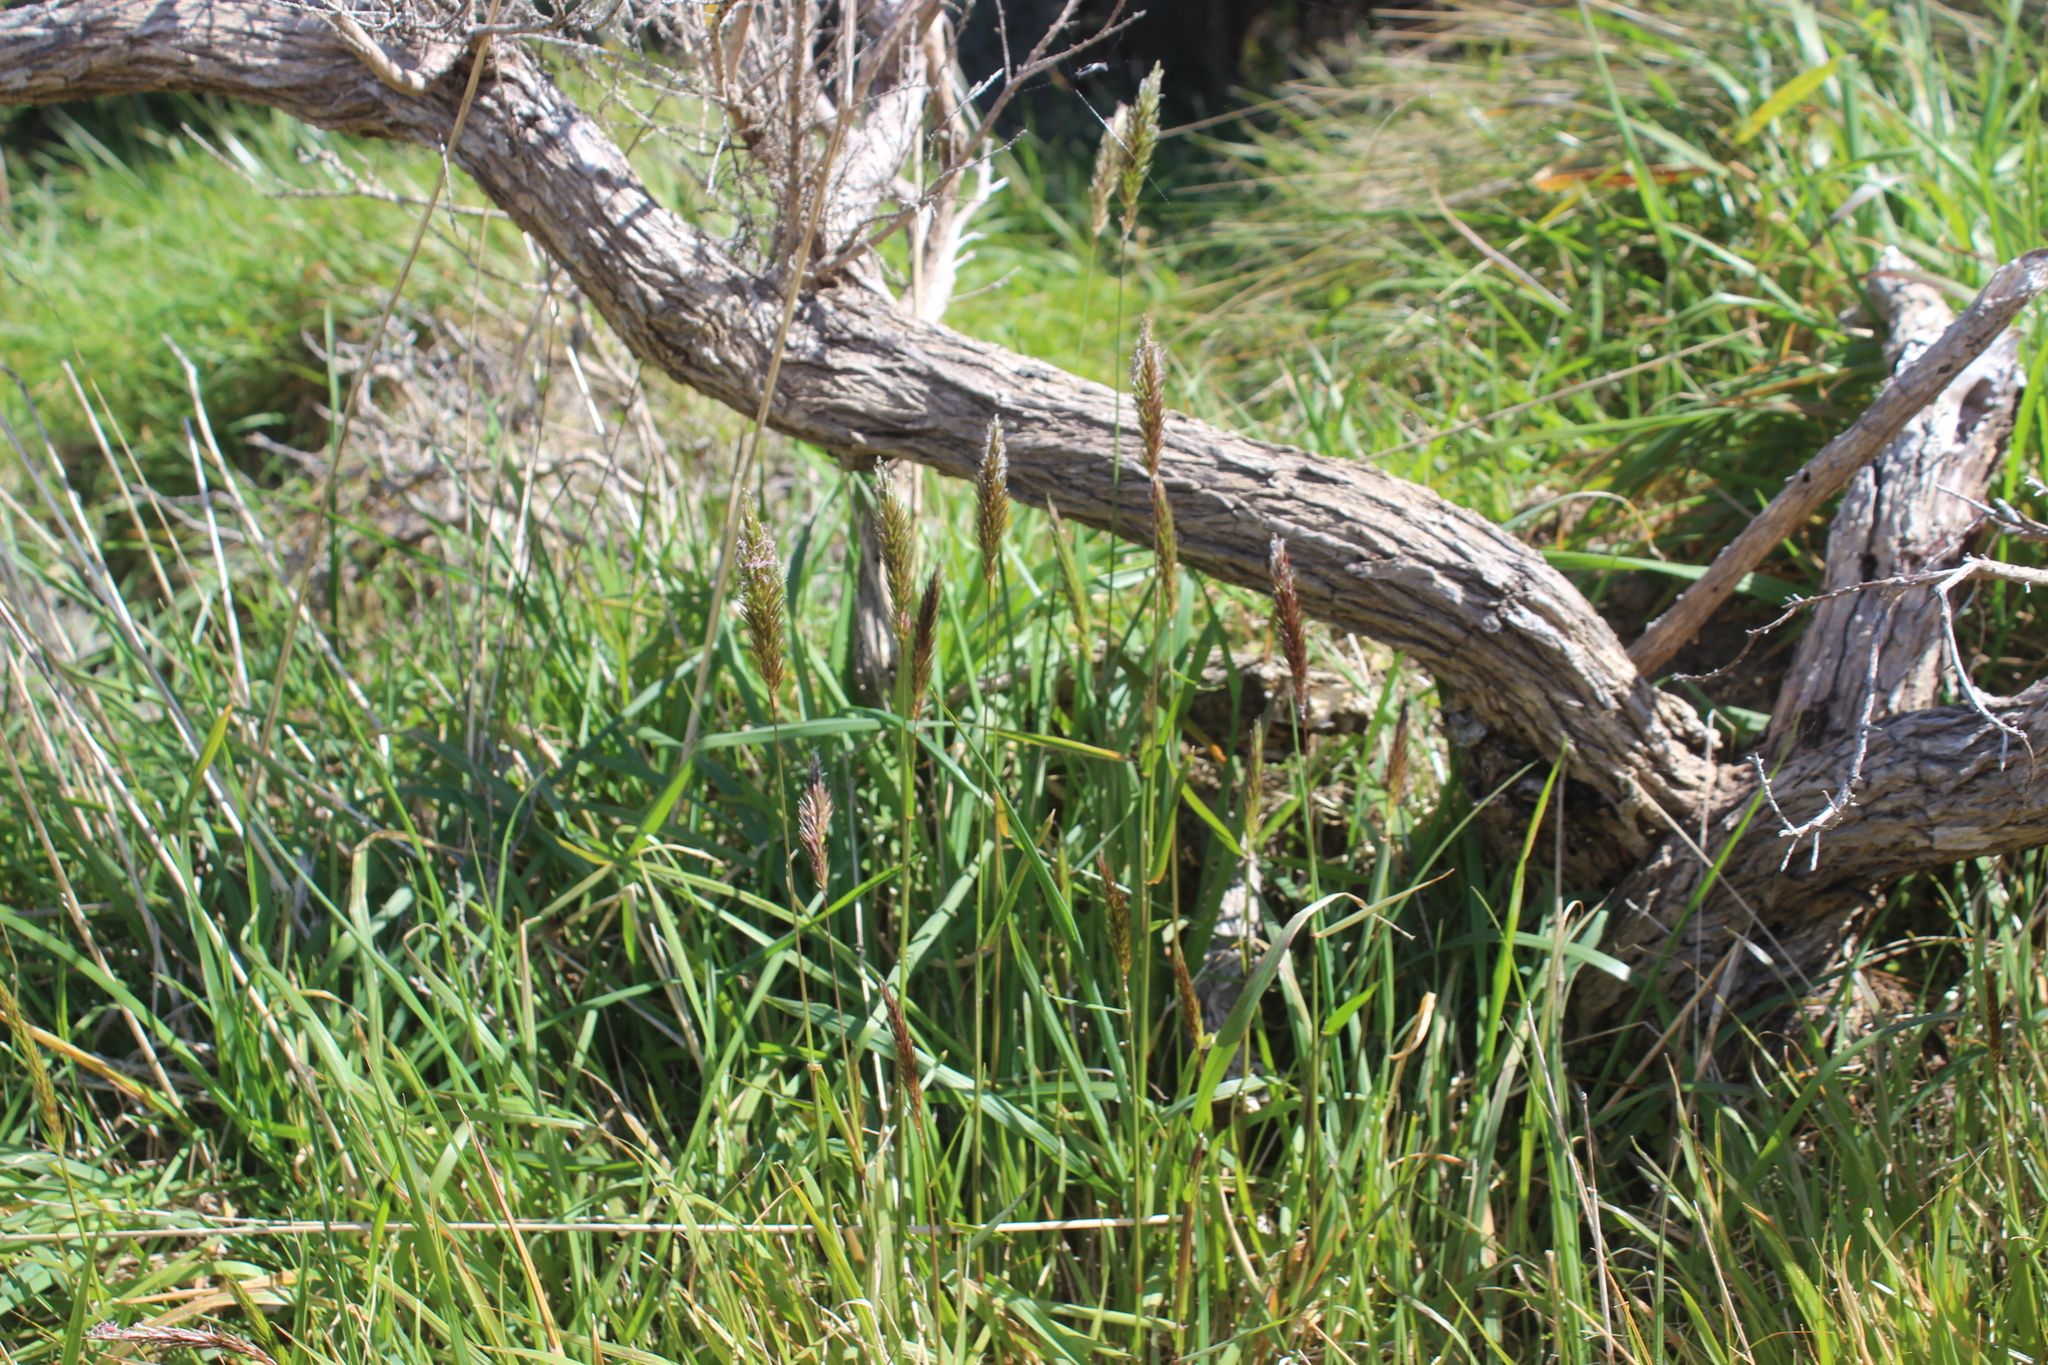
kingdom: Plantae
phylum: Tracheophyta
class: Liliopsida
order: Poales
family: Poaceae
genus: Anthoxanthum
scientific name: Anthoxanthum odoratum
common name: Sweet vernalgrass
